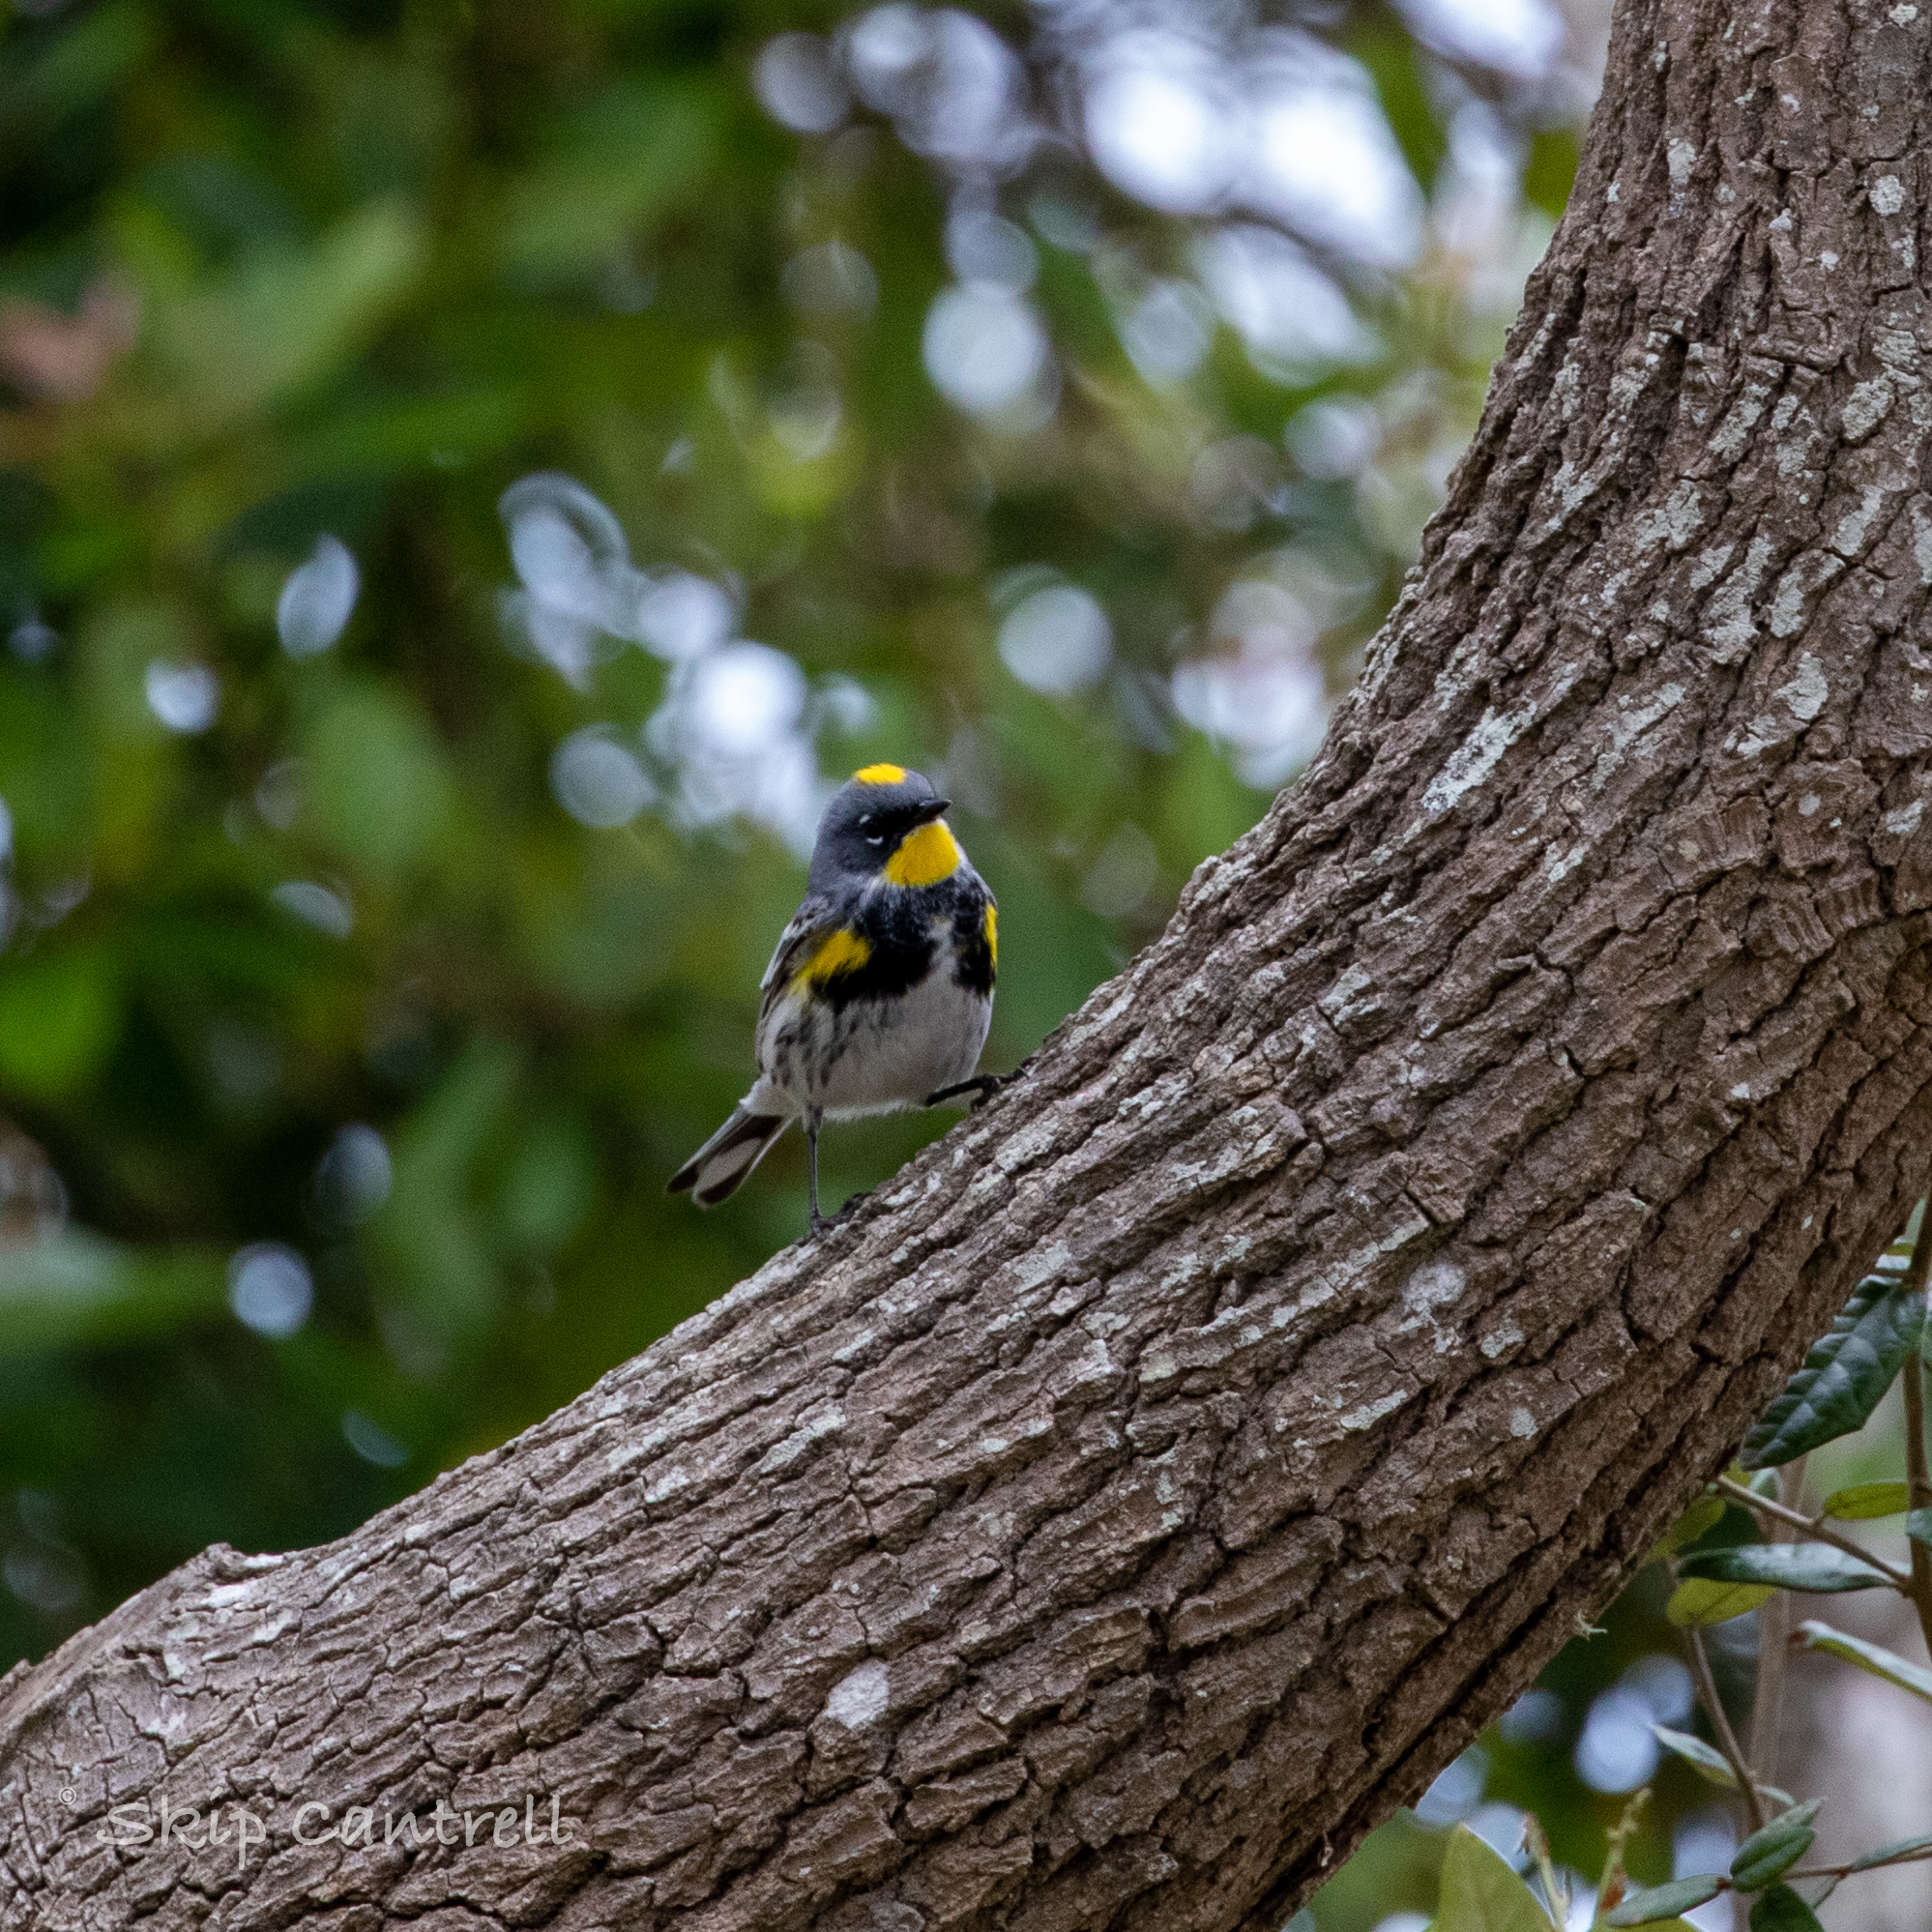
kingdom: Animalia
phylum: Chordata
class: Aves
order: Passeriformes
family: Parulidae
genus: Setophaga
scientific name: Setophaga coronata
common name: Myrtle warbler
